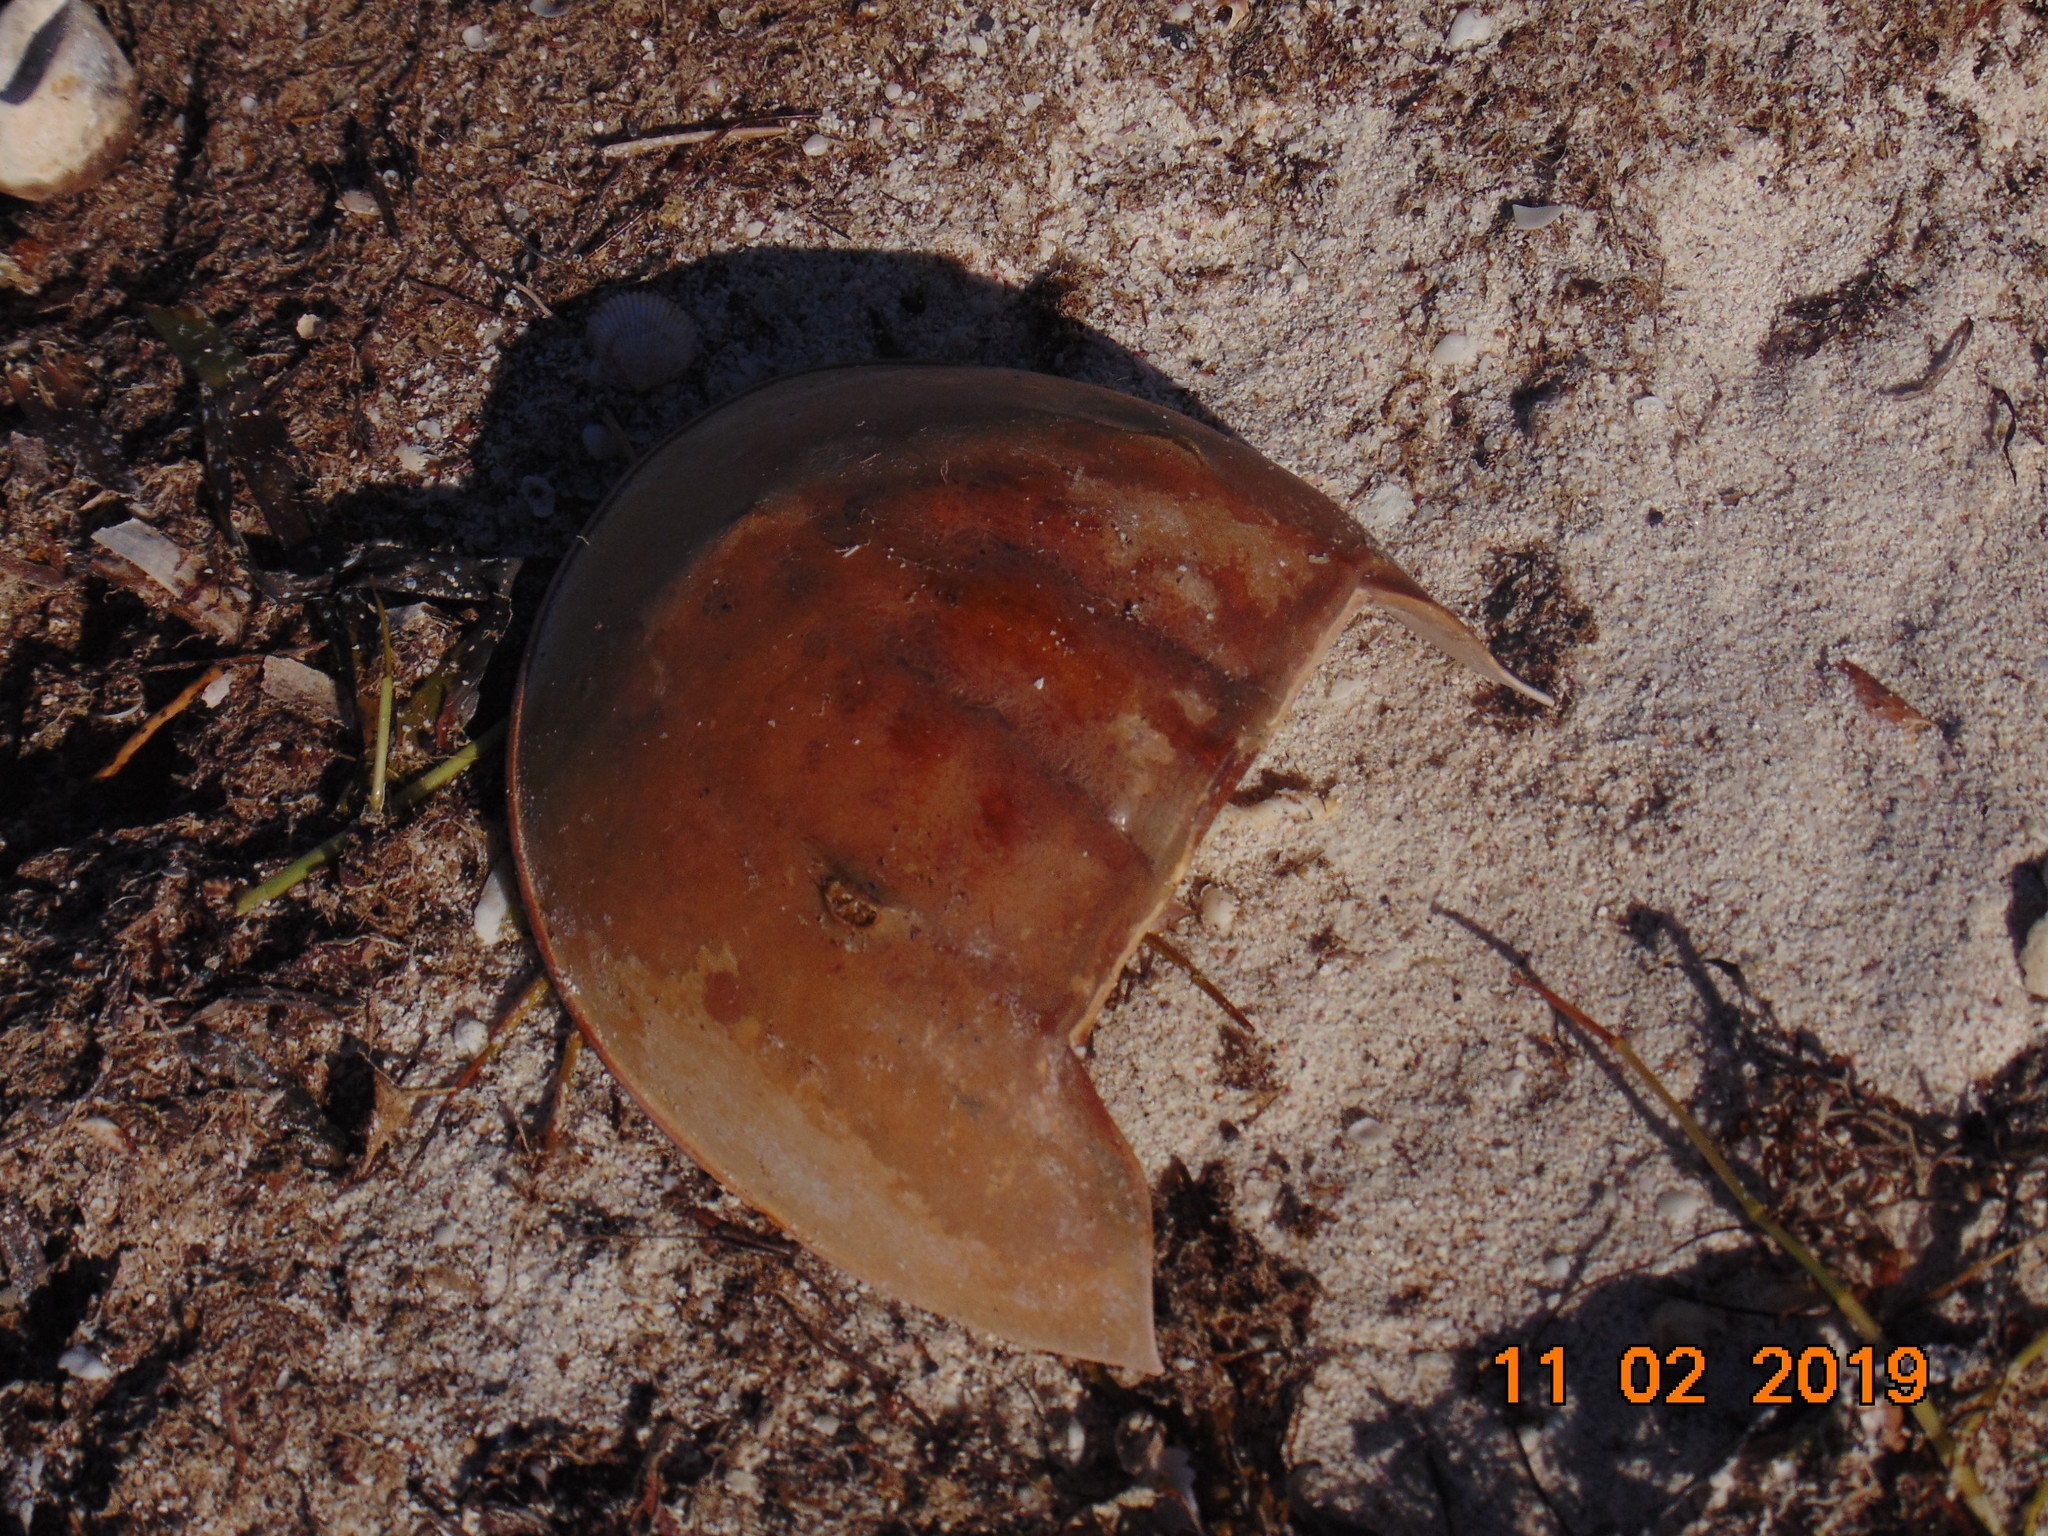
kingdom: Animalia
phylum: Arthropoda
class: Merostomata
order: Xiphosurida
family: Limulidae
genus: Limulus
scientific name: Limulus polyphemus
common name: Horseshoe crab
